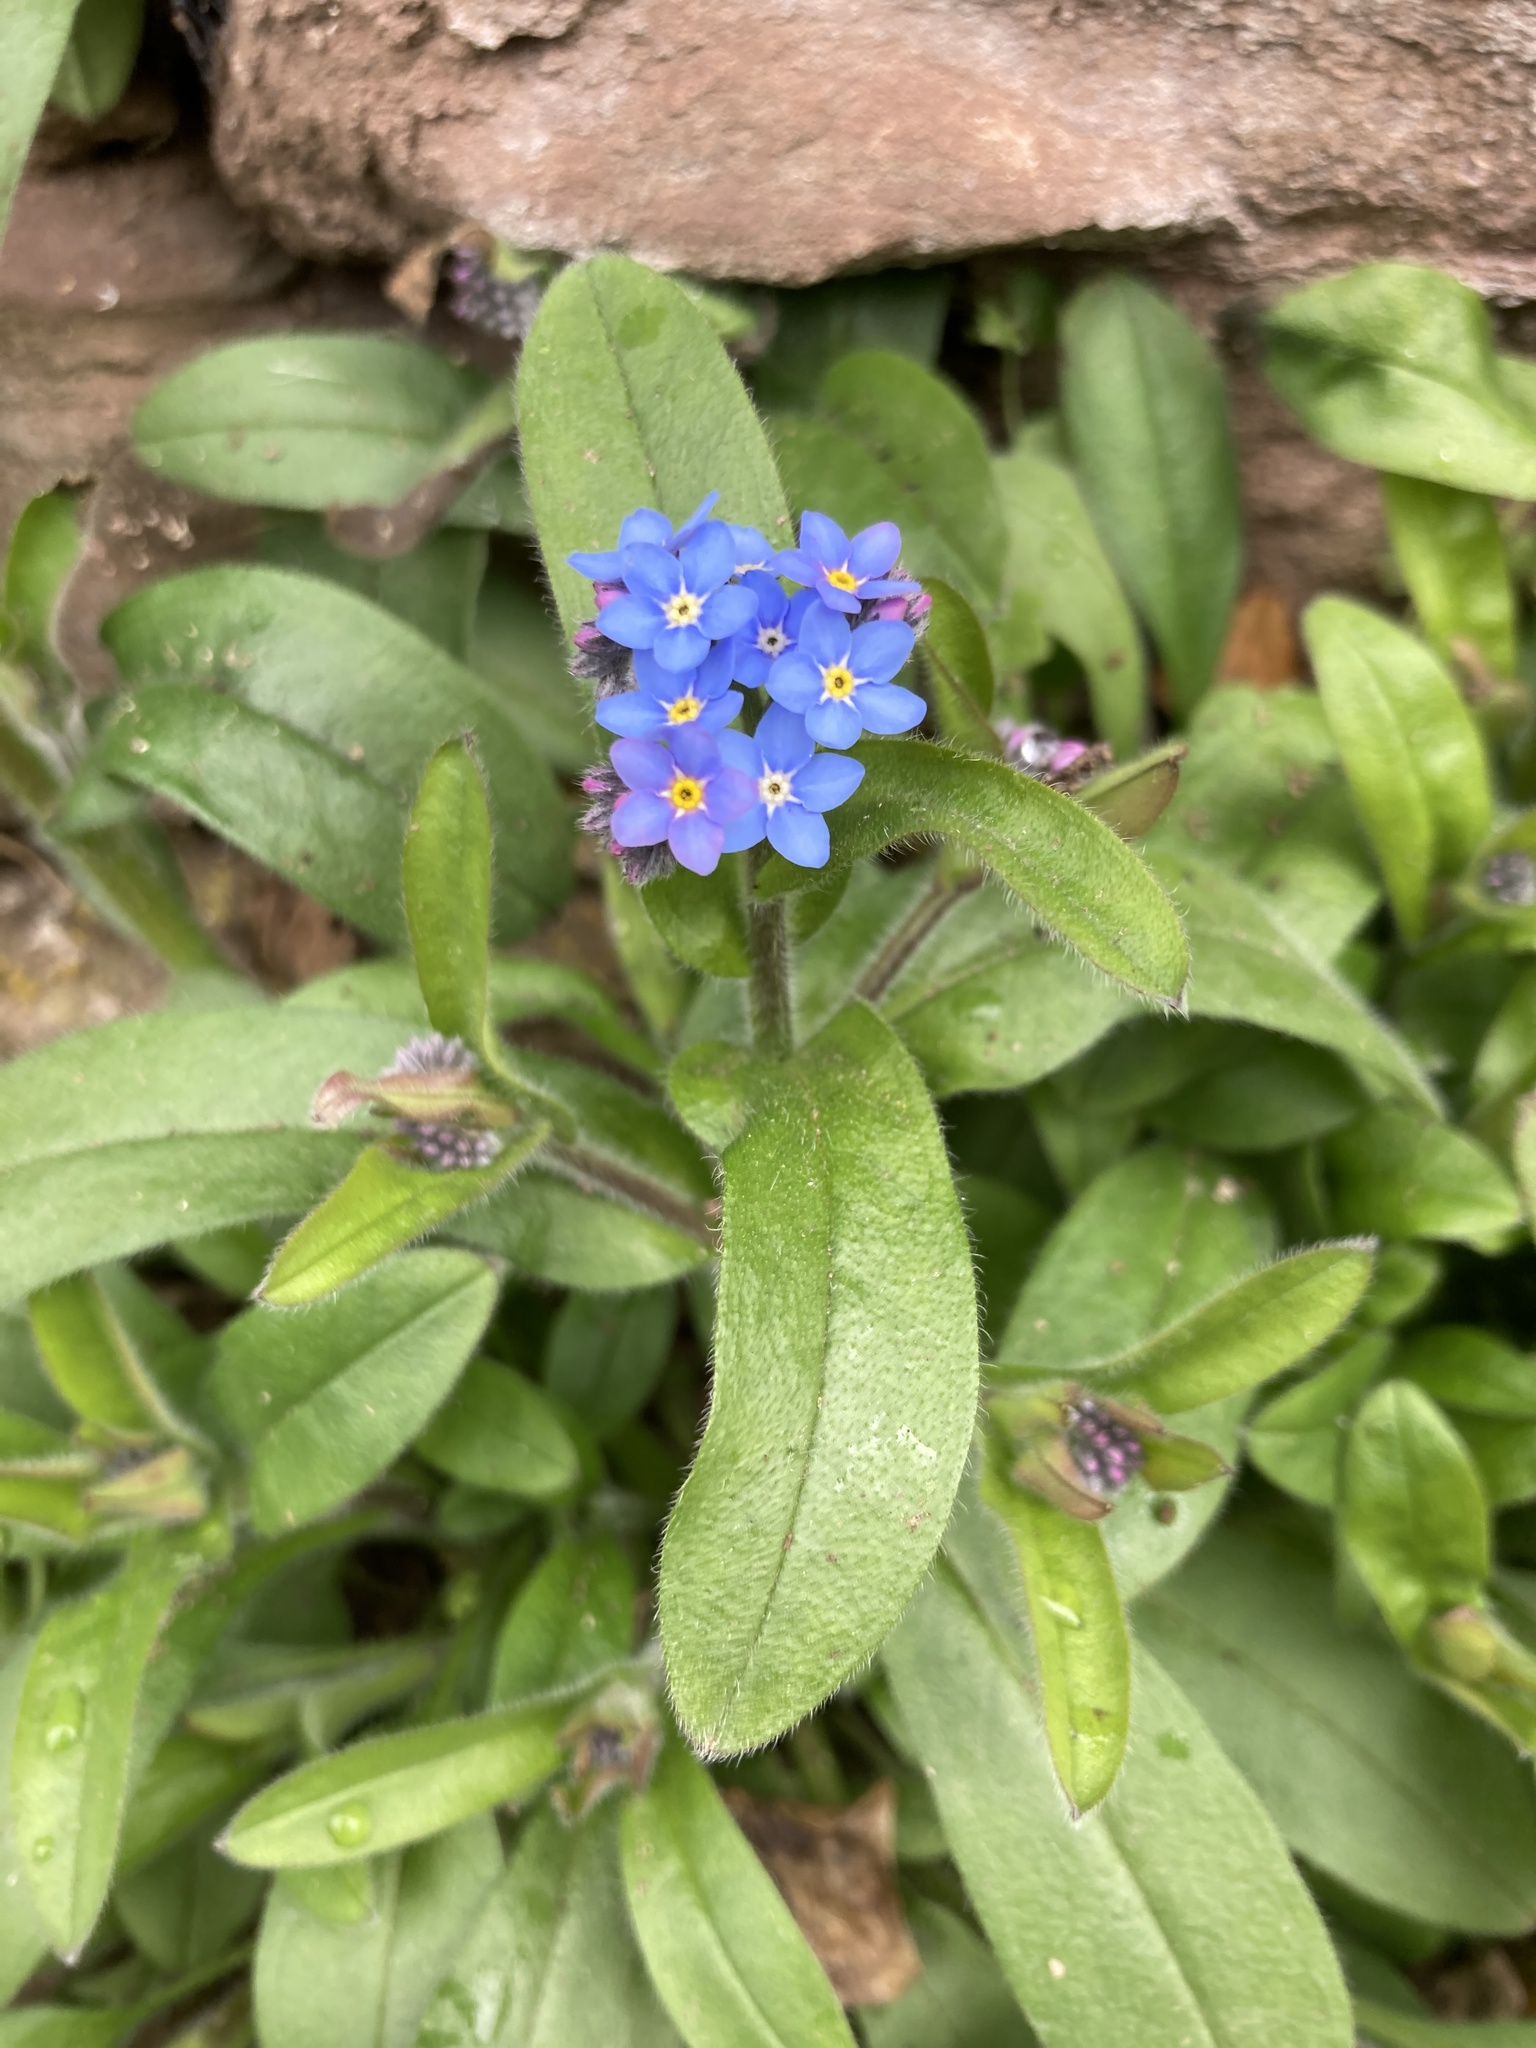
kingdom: Plantae
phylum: Tracheophyta
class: Magnoliopsida
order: Boraginales
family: Boraginaceae
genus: Myosotis
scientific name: Myosotis sylvatica
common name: Wood forget-me-not
